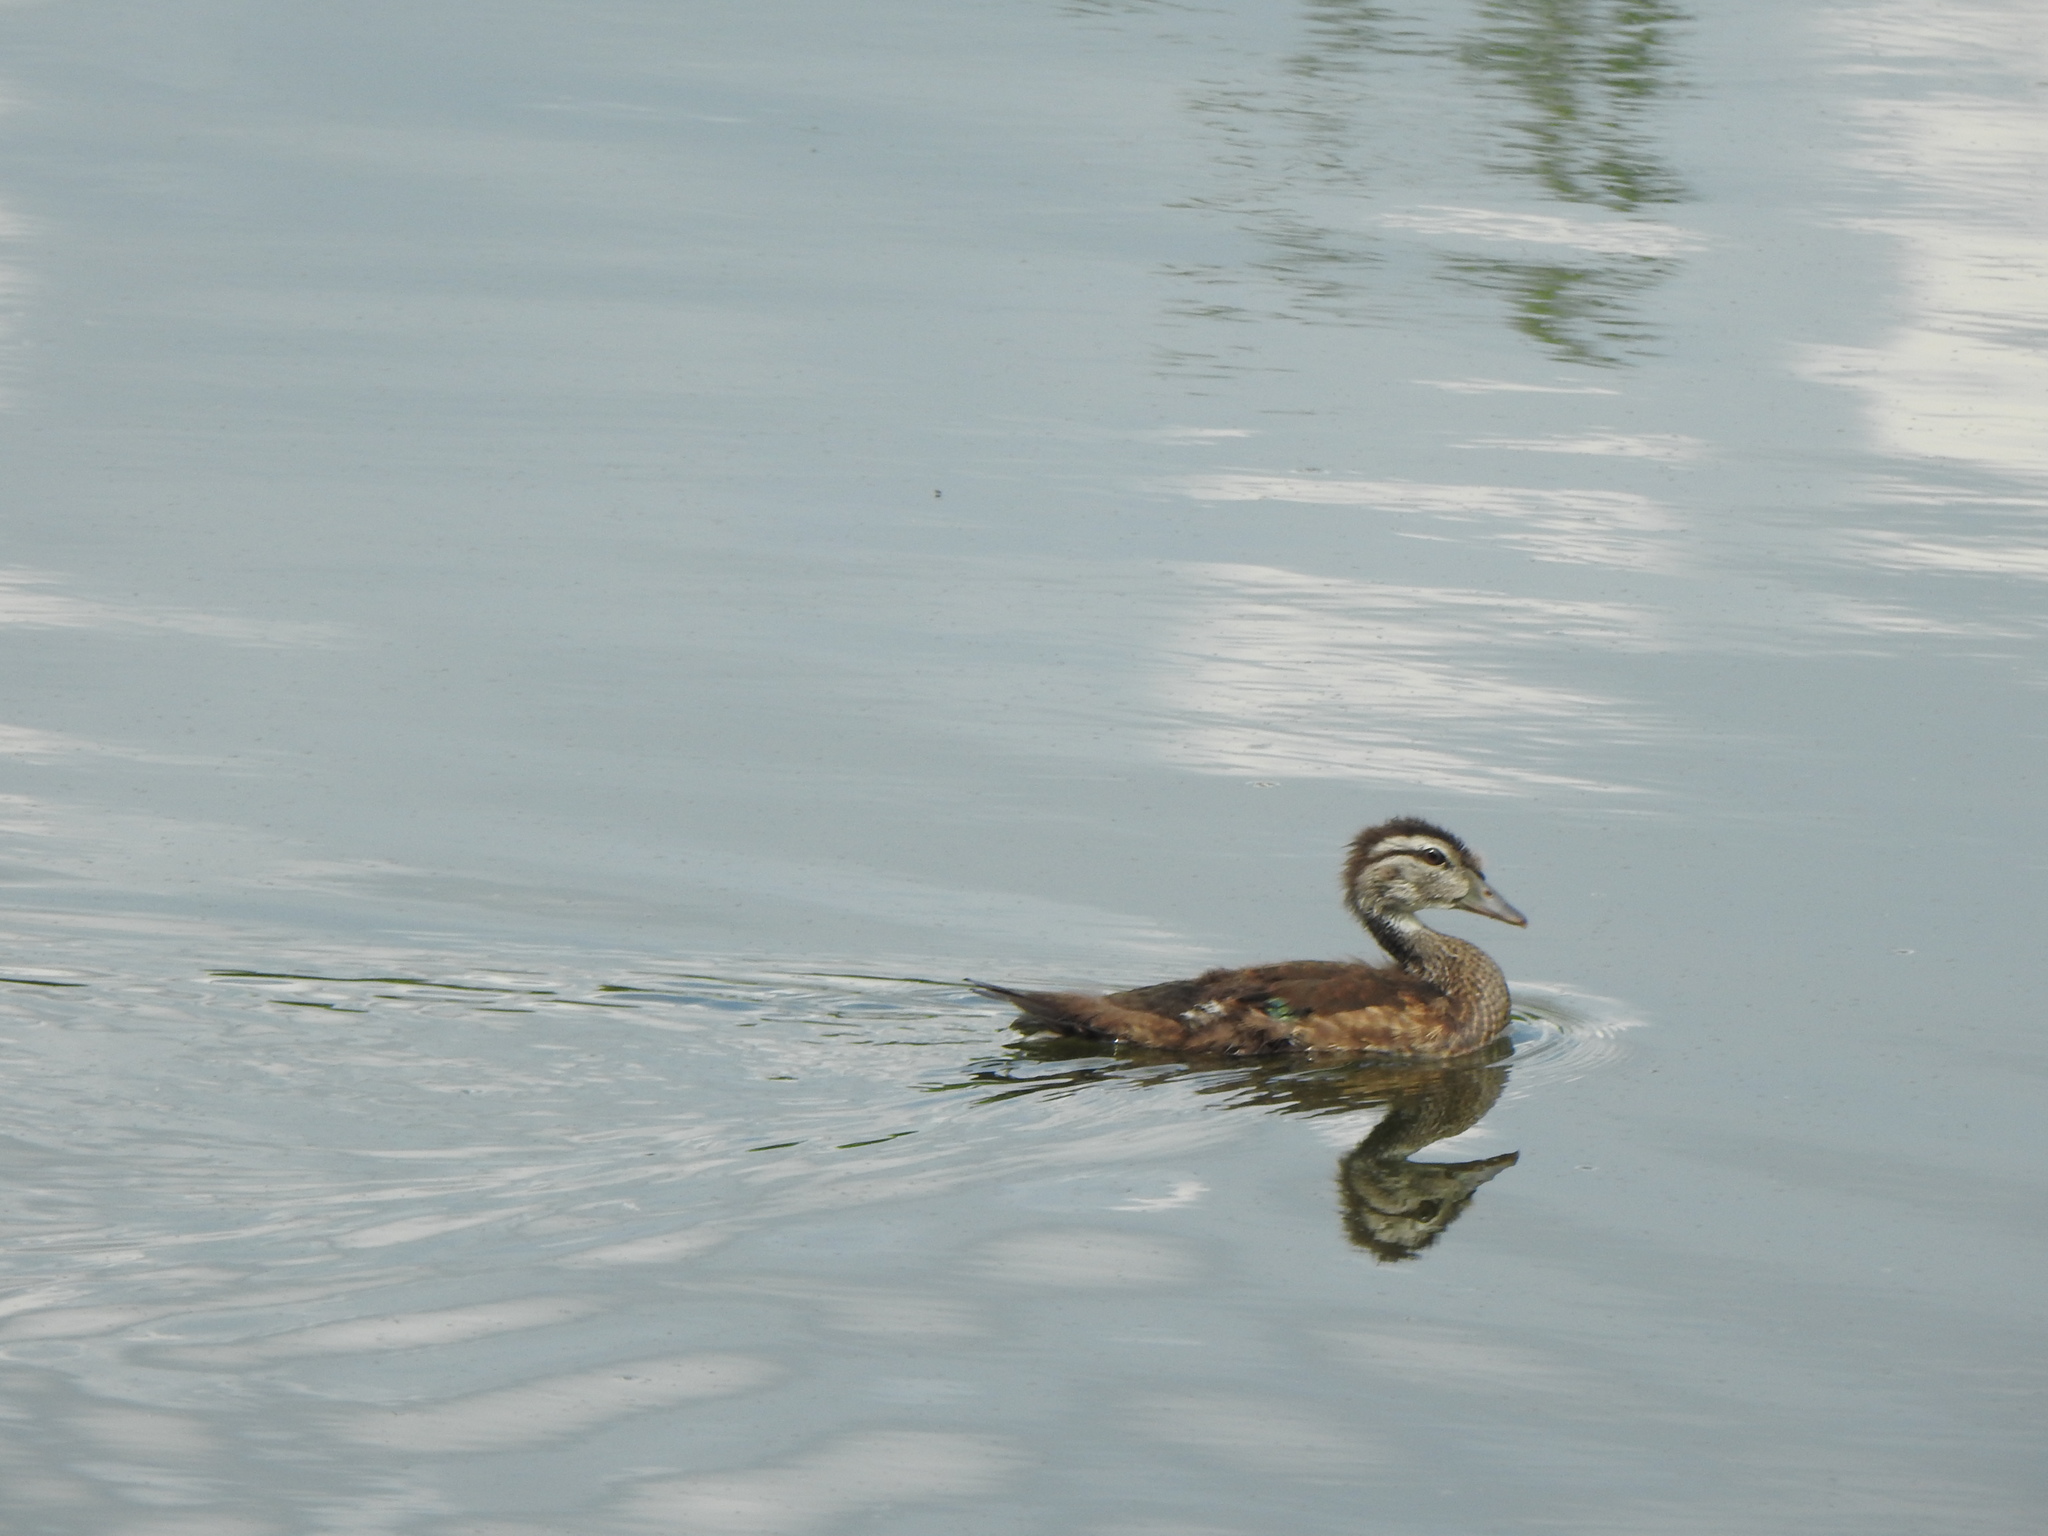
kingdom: Animalia
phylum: Chordata
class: Aves
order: Anseriformes
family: Anatidae
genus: Aix
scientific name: Aix sponsa
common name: Wood duck
